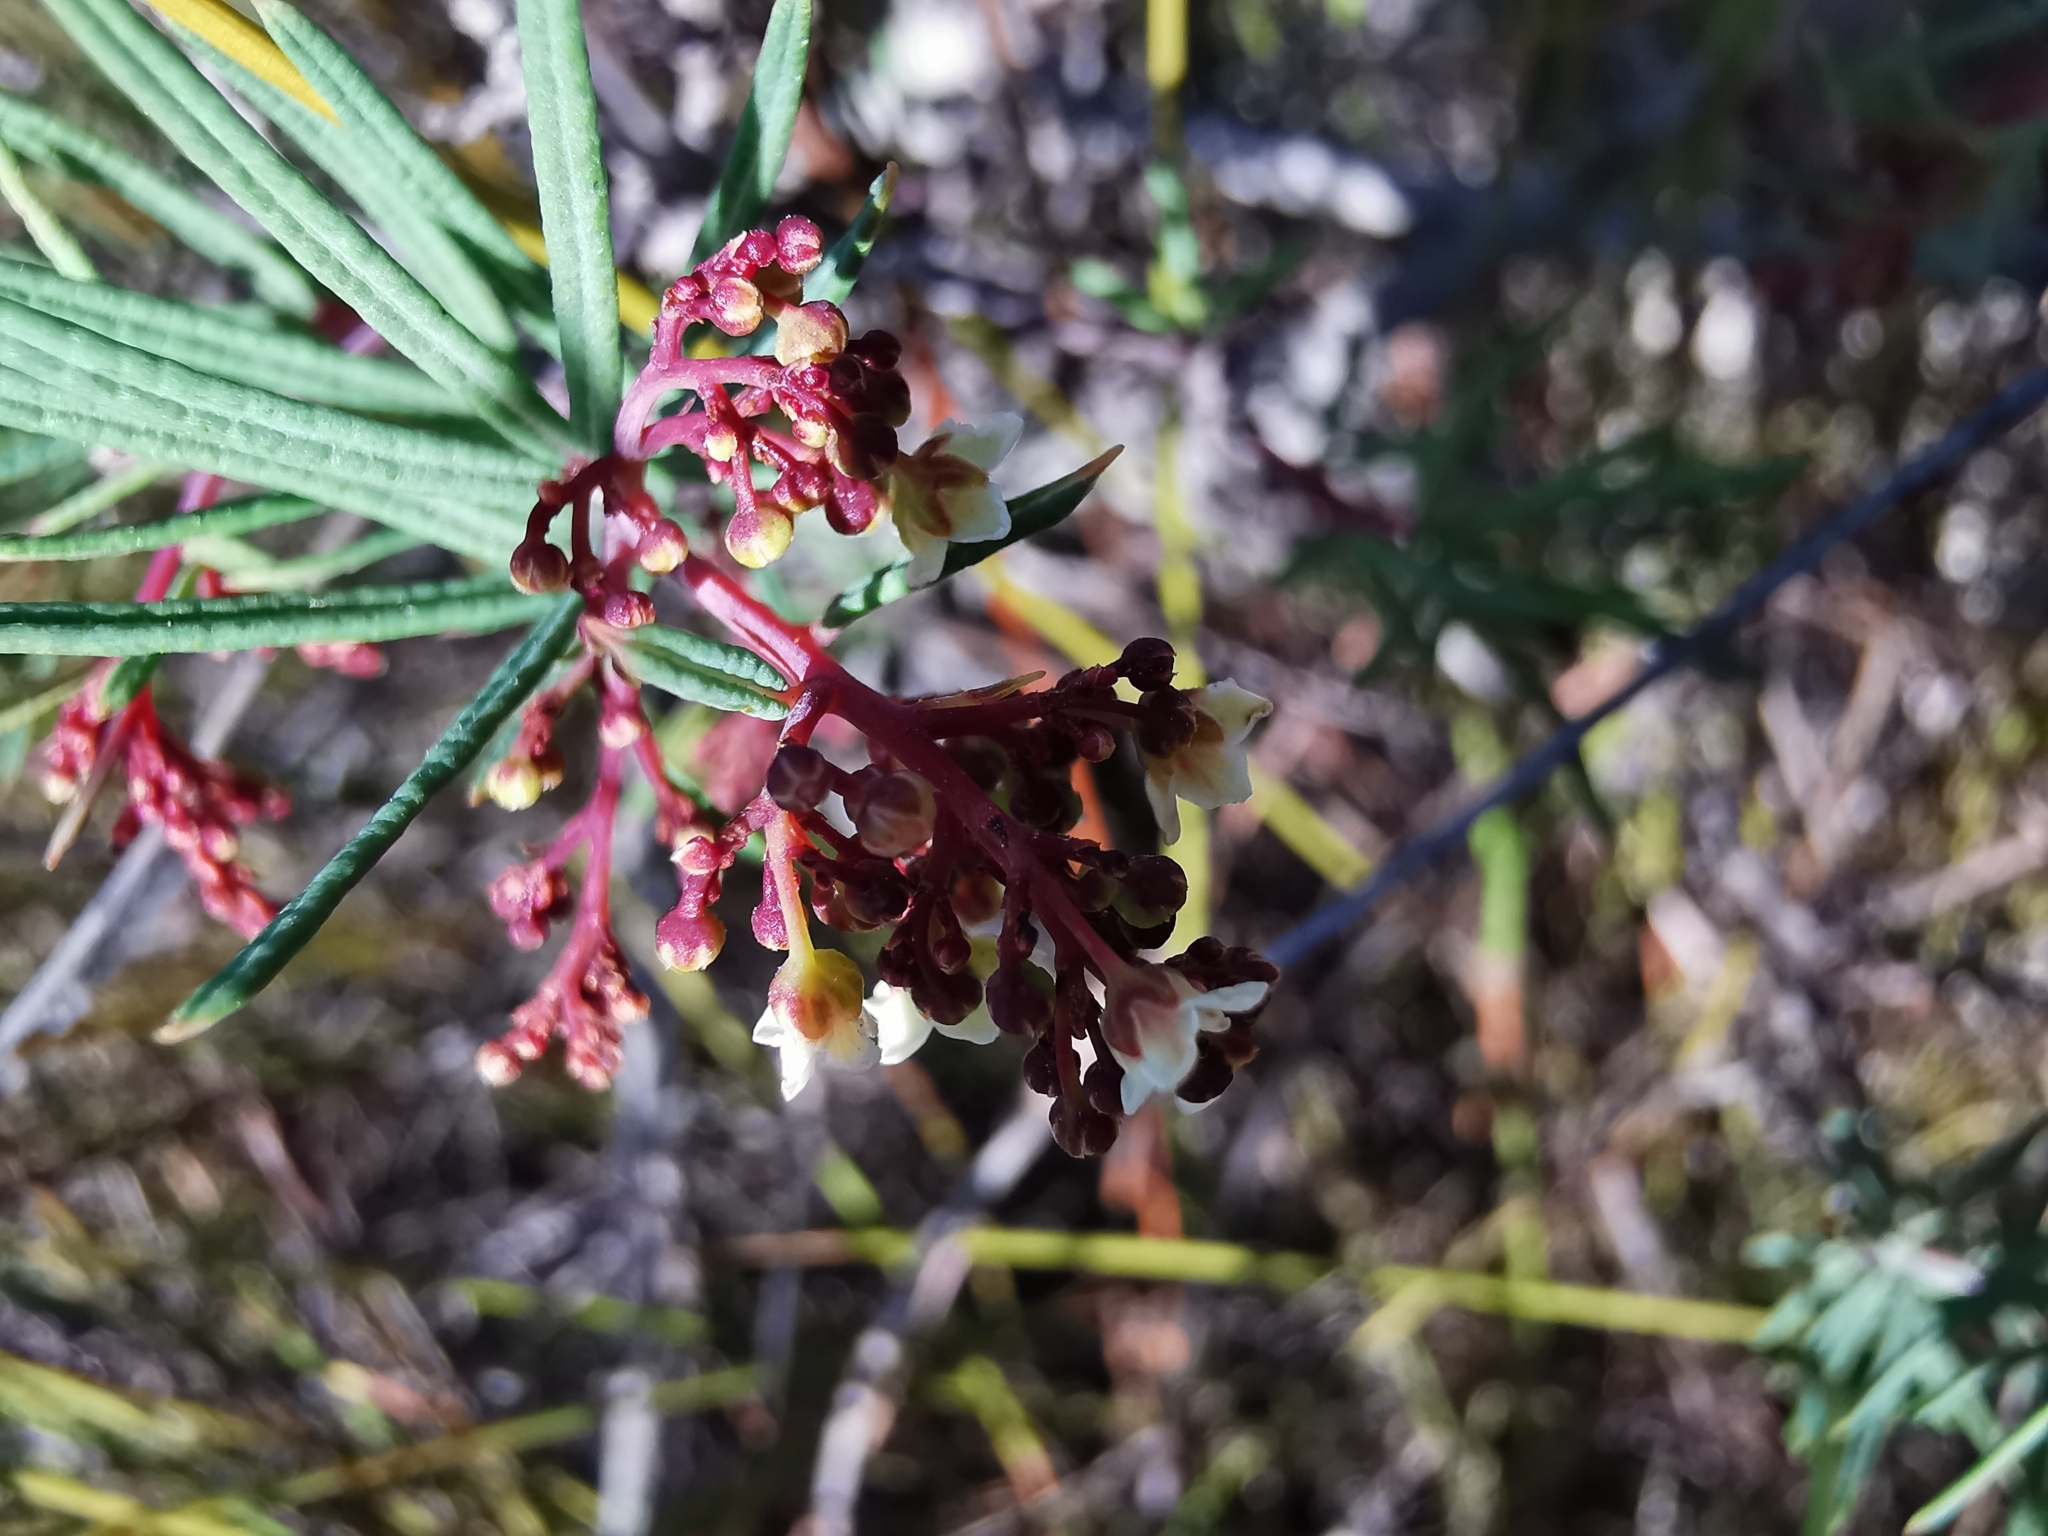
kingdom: Plantae
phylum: Tracheophyta
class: Magnoliopsida
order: Sapindales
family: Anacardiaceae
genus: Searsia
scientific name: Searsia rosmarinifolia
